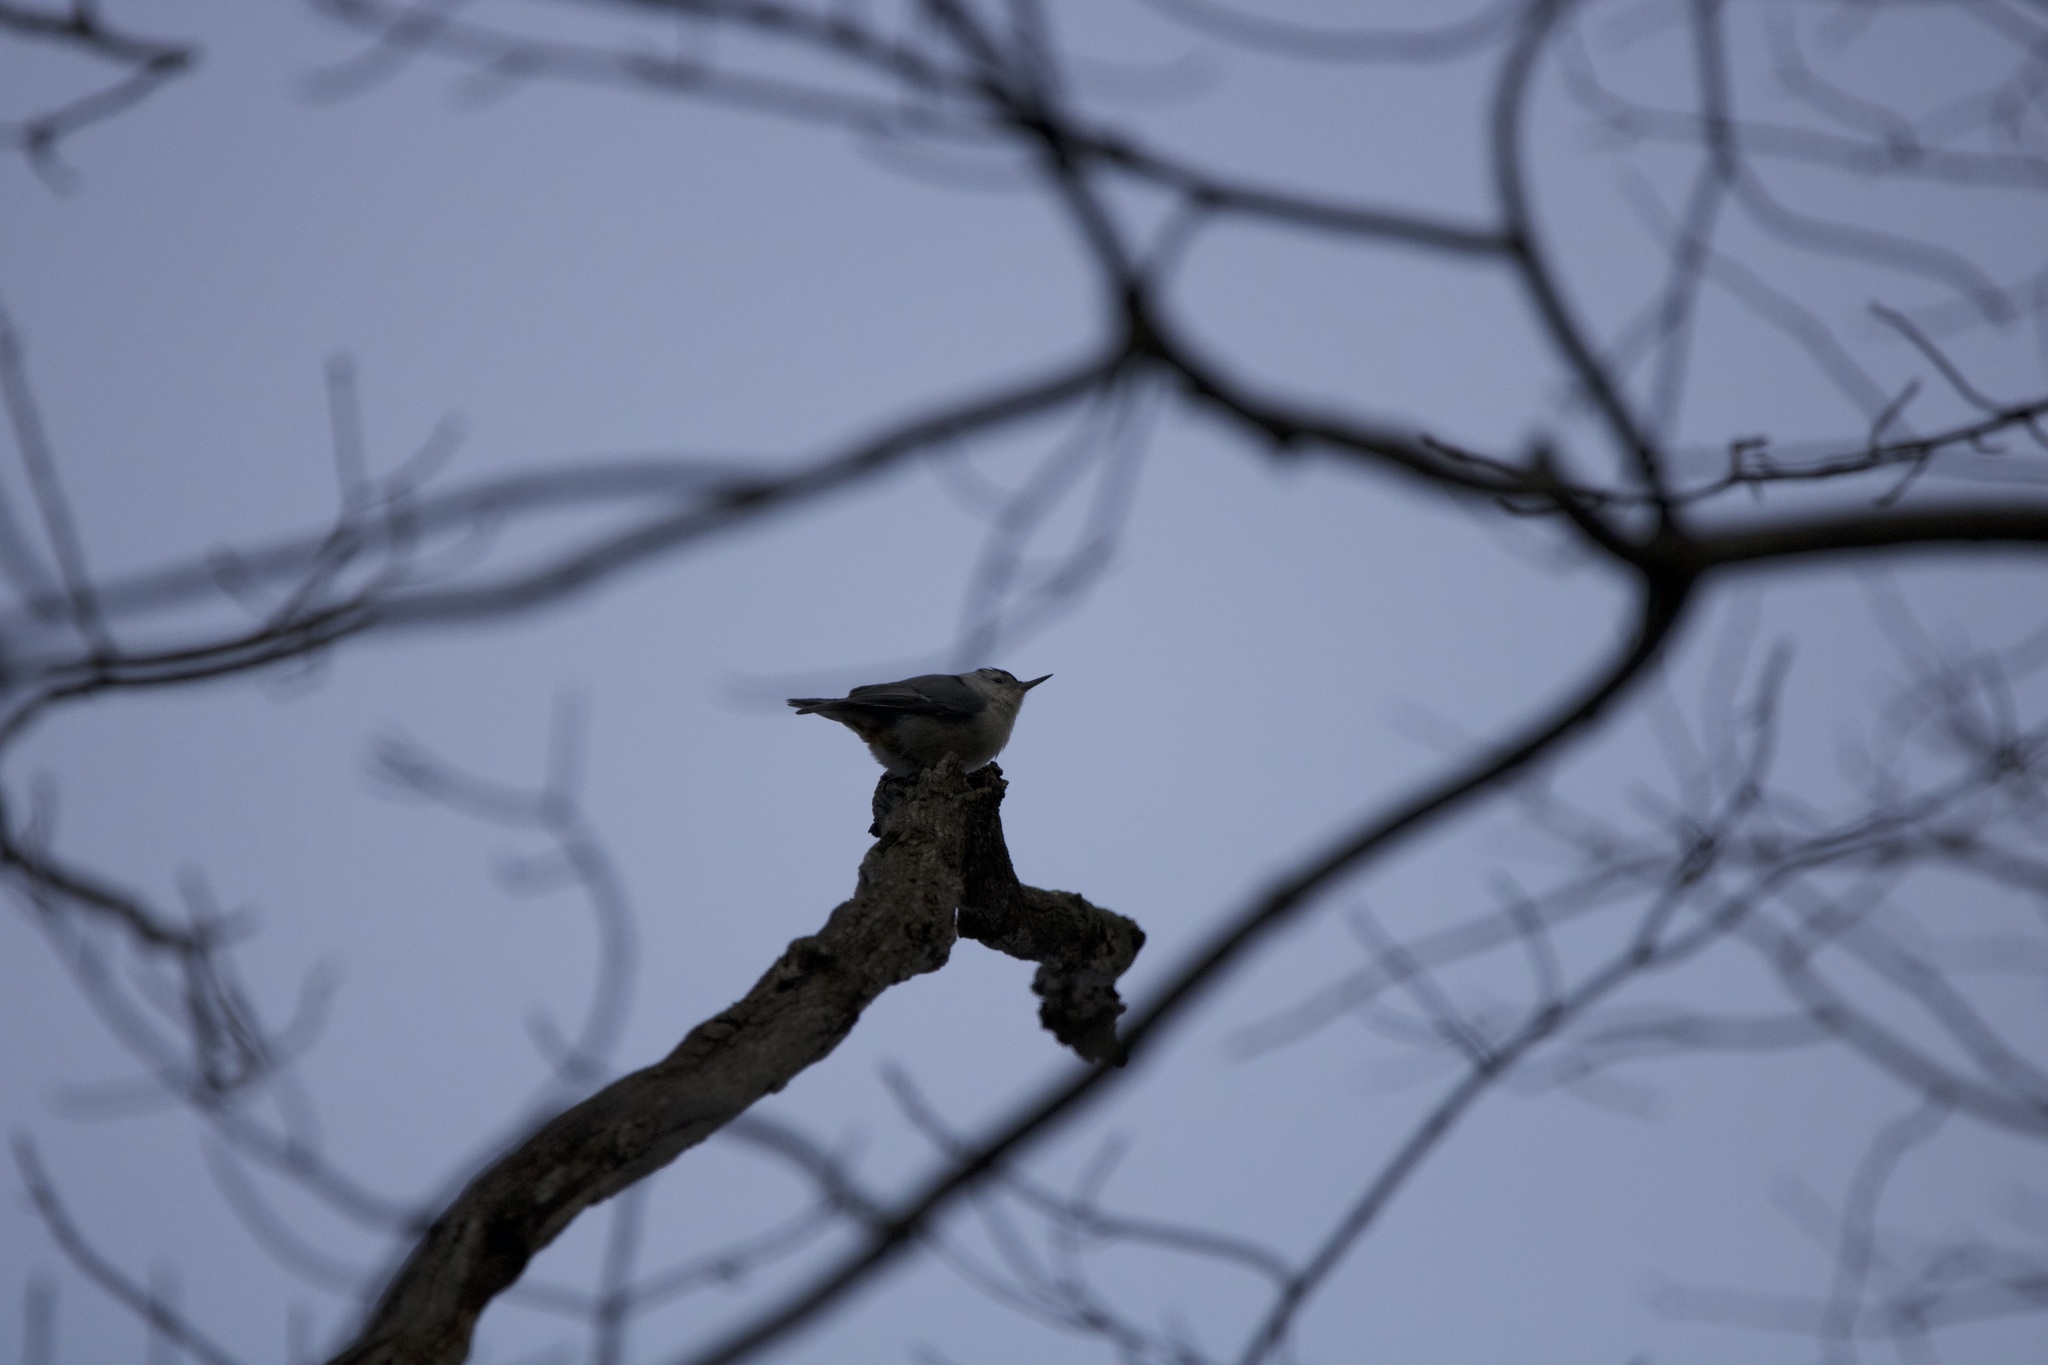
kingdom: Animalia
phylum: Chordata
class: Aves
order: Passeriformes
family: Sittidae
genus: Sitta
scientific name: Sitta carolinensis
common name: White-breasted nuthatch
